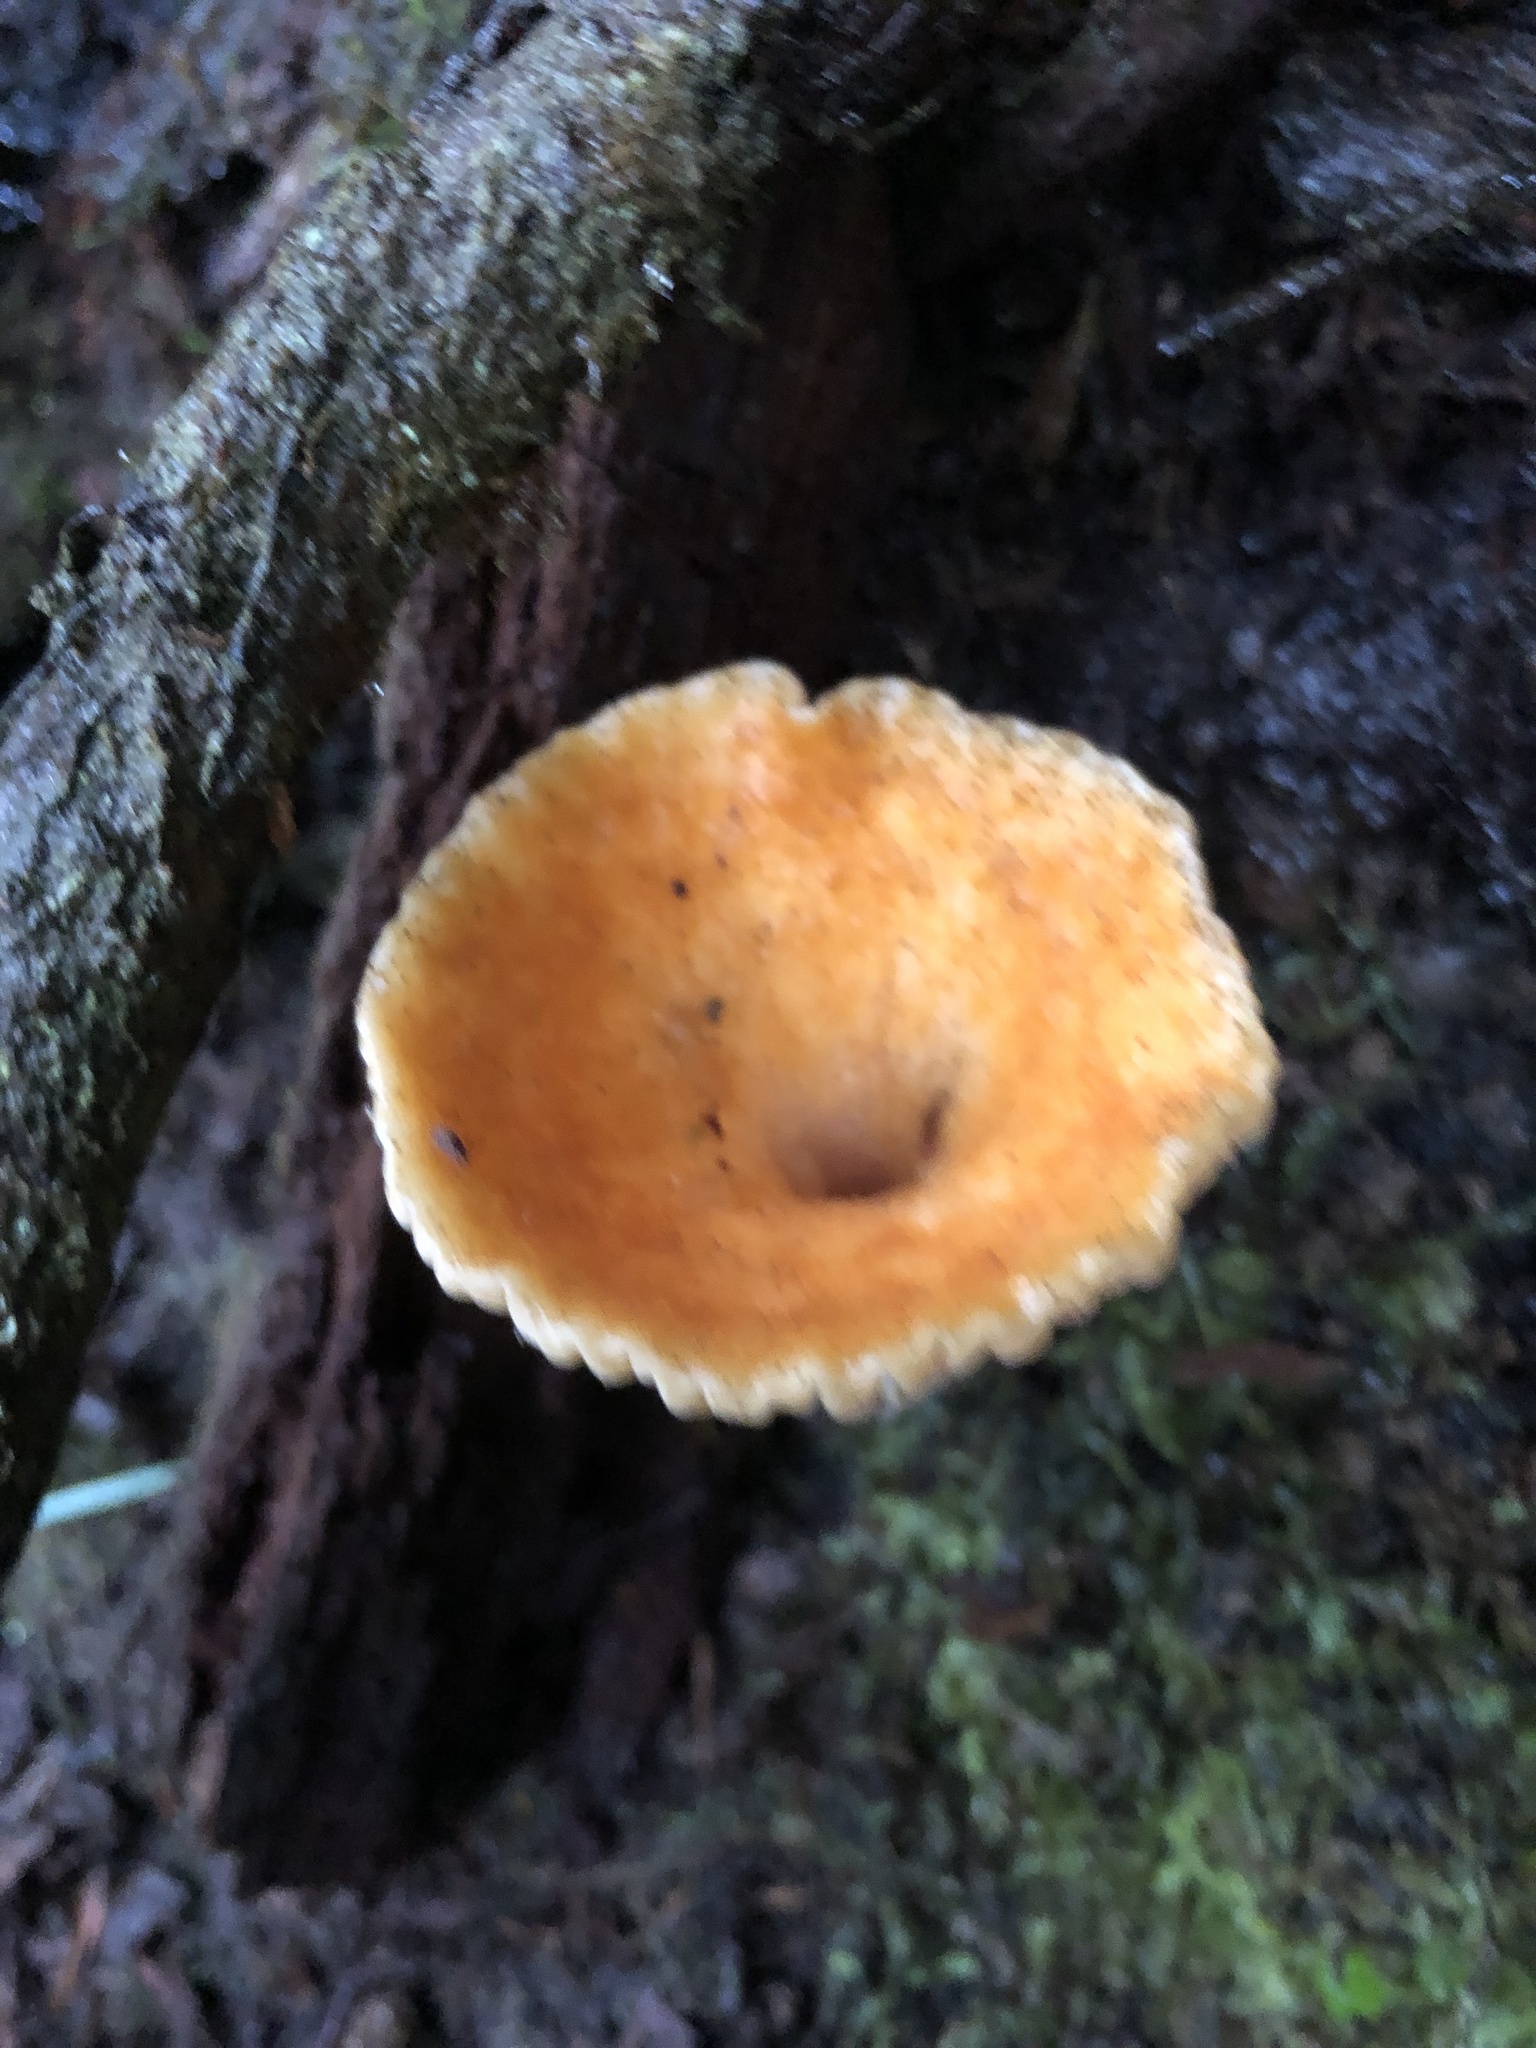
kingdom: Fungi
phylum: Basidiomycota
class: Agaricomycetes
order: Gomphales
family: Gomphaceae
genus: Turbinellus
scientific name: Turbinellus floccosus
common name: Scaly chanterelle
